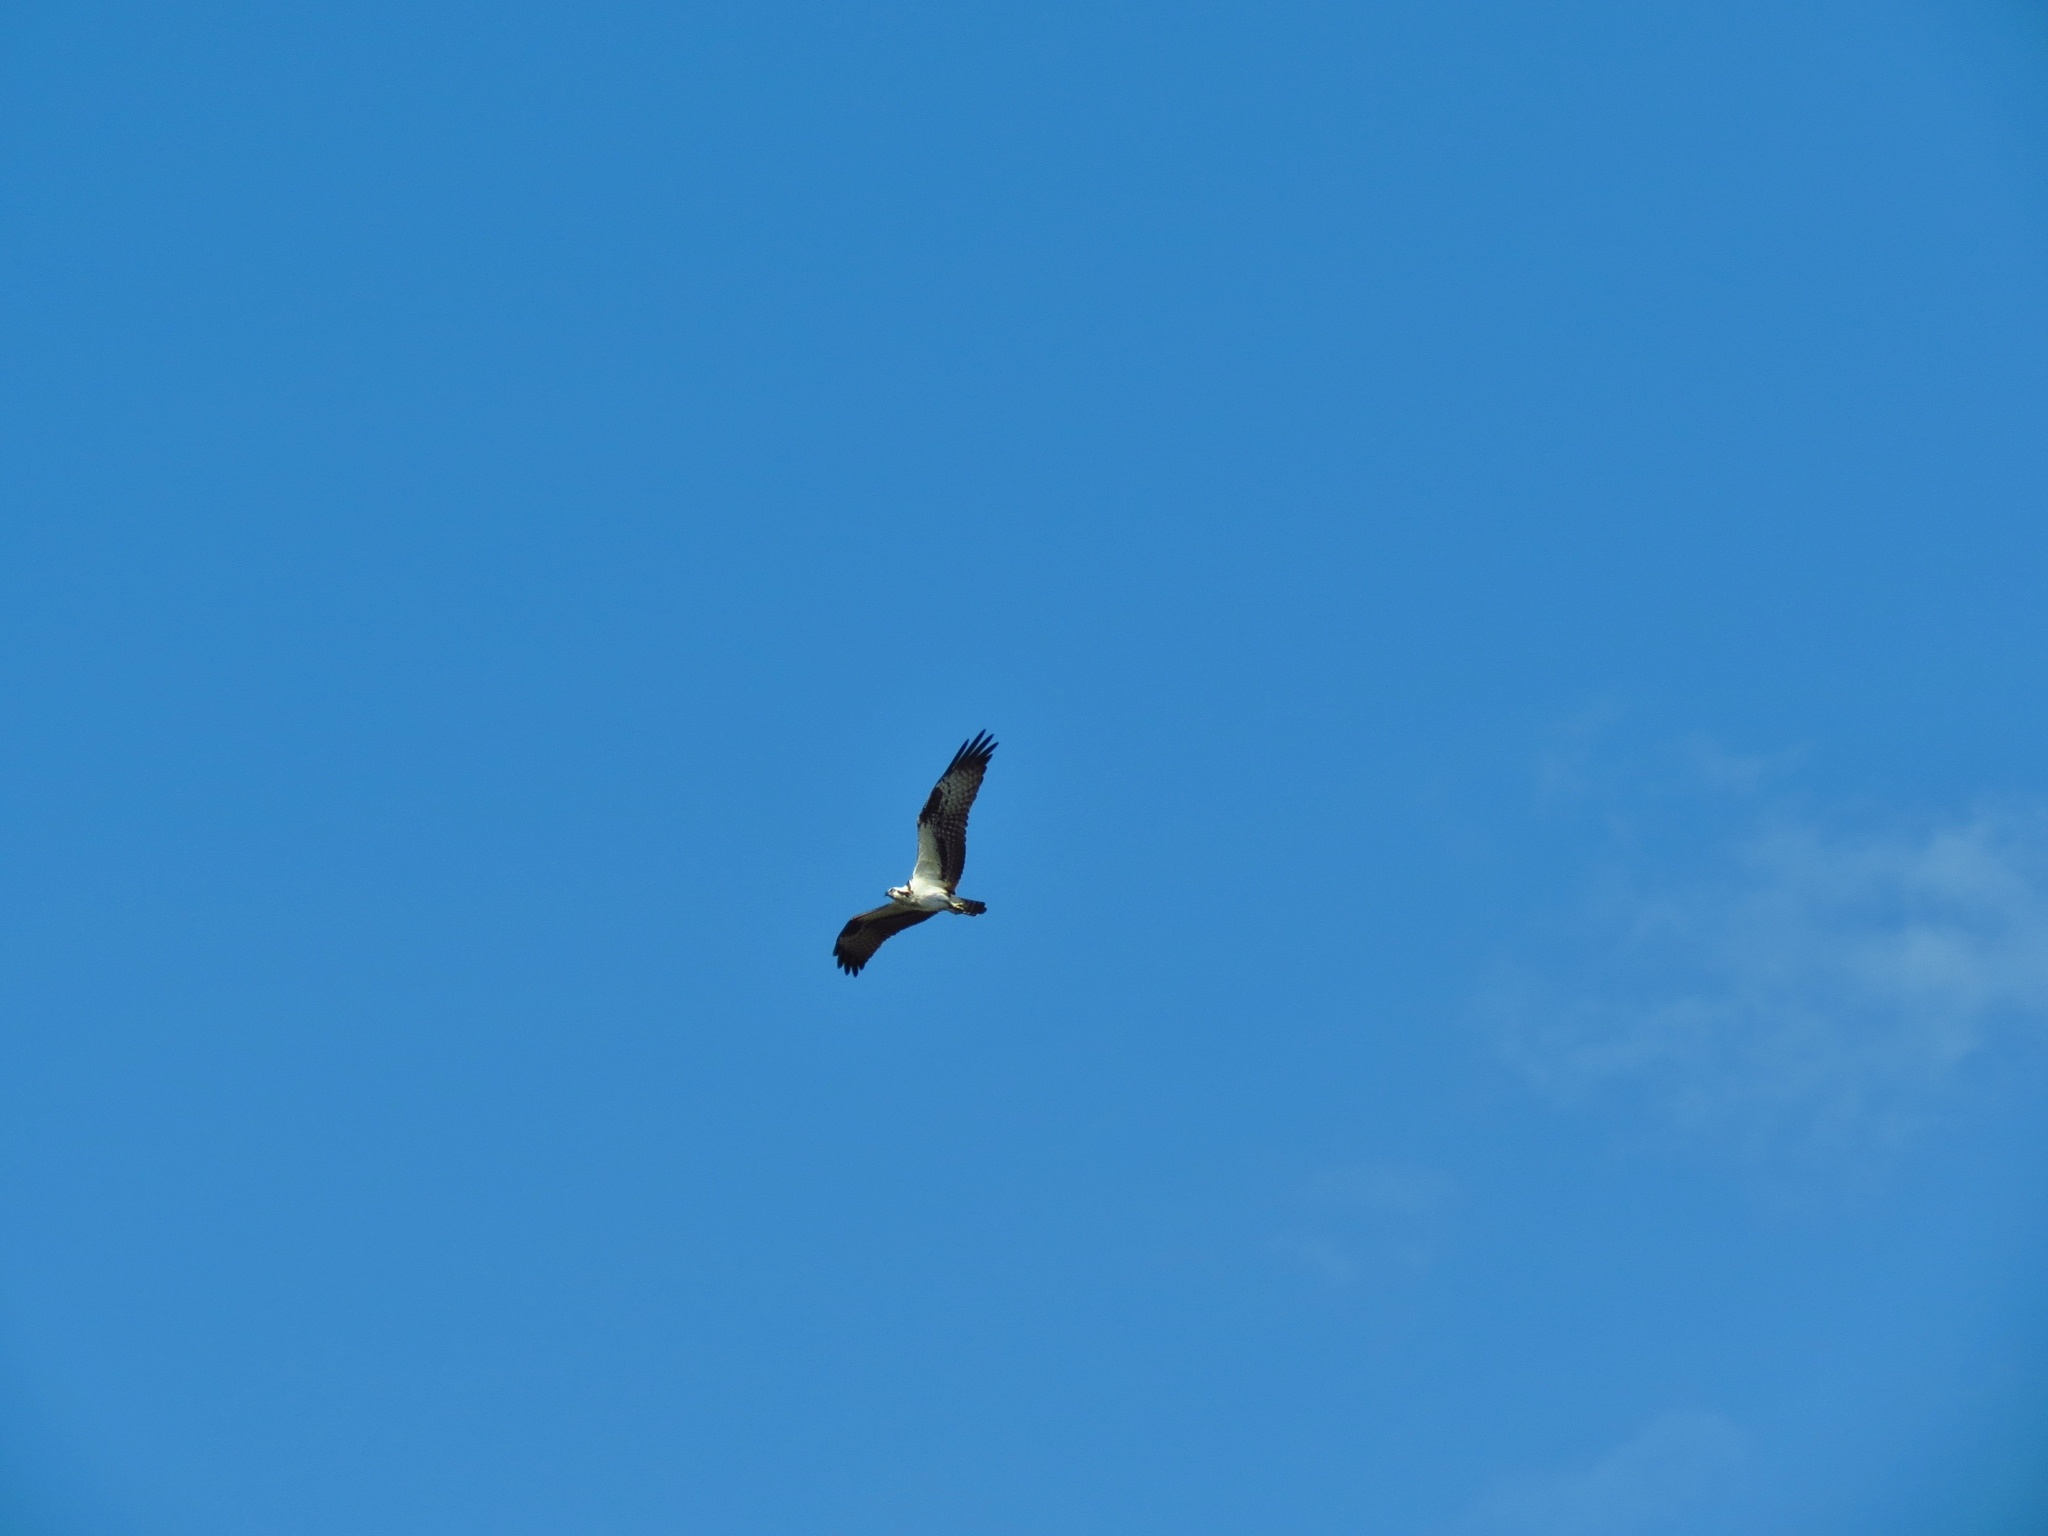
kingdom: Animalia
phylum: Chordata
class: Aves
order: Accipitriformes
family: Pandionidae
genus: Pandion
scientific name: Pandion haliaetus
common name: Osprey
